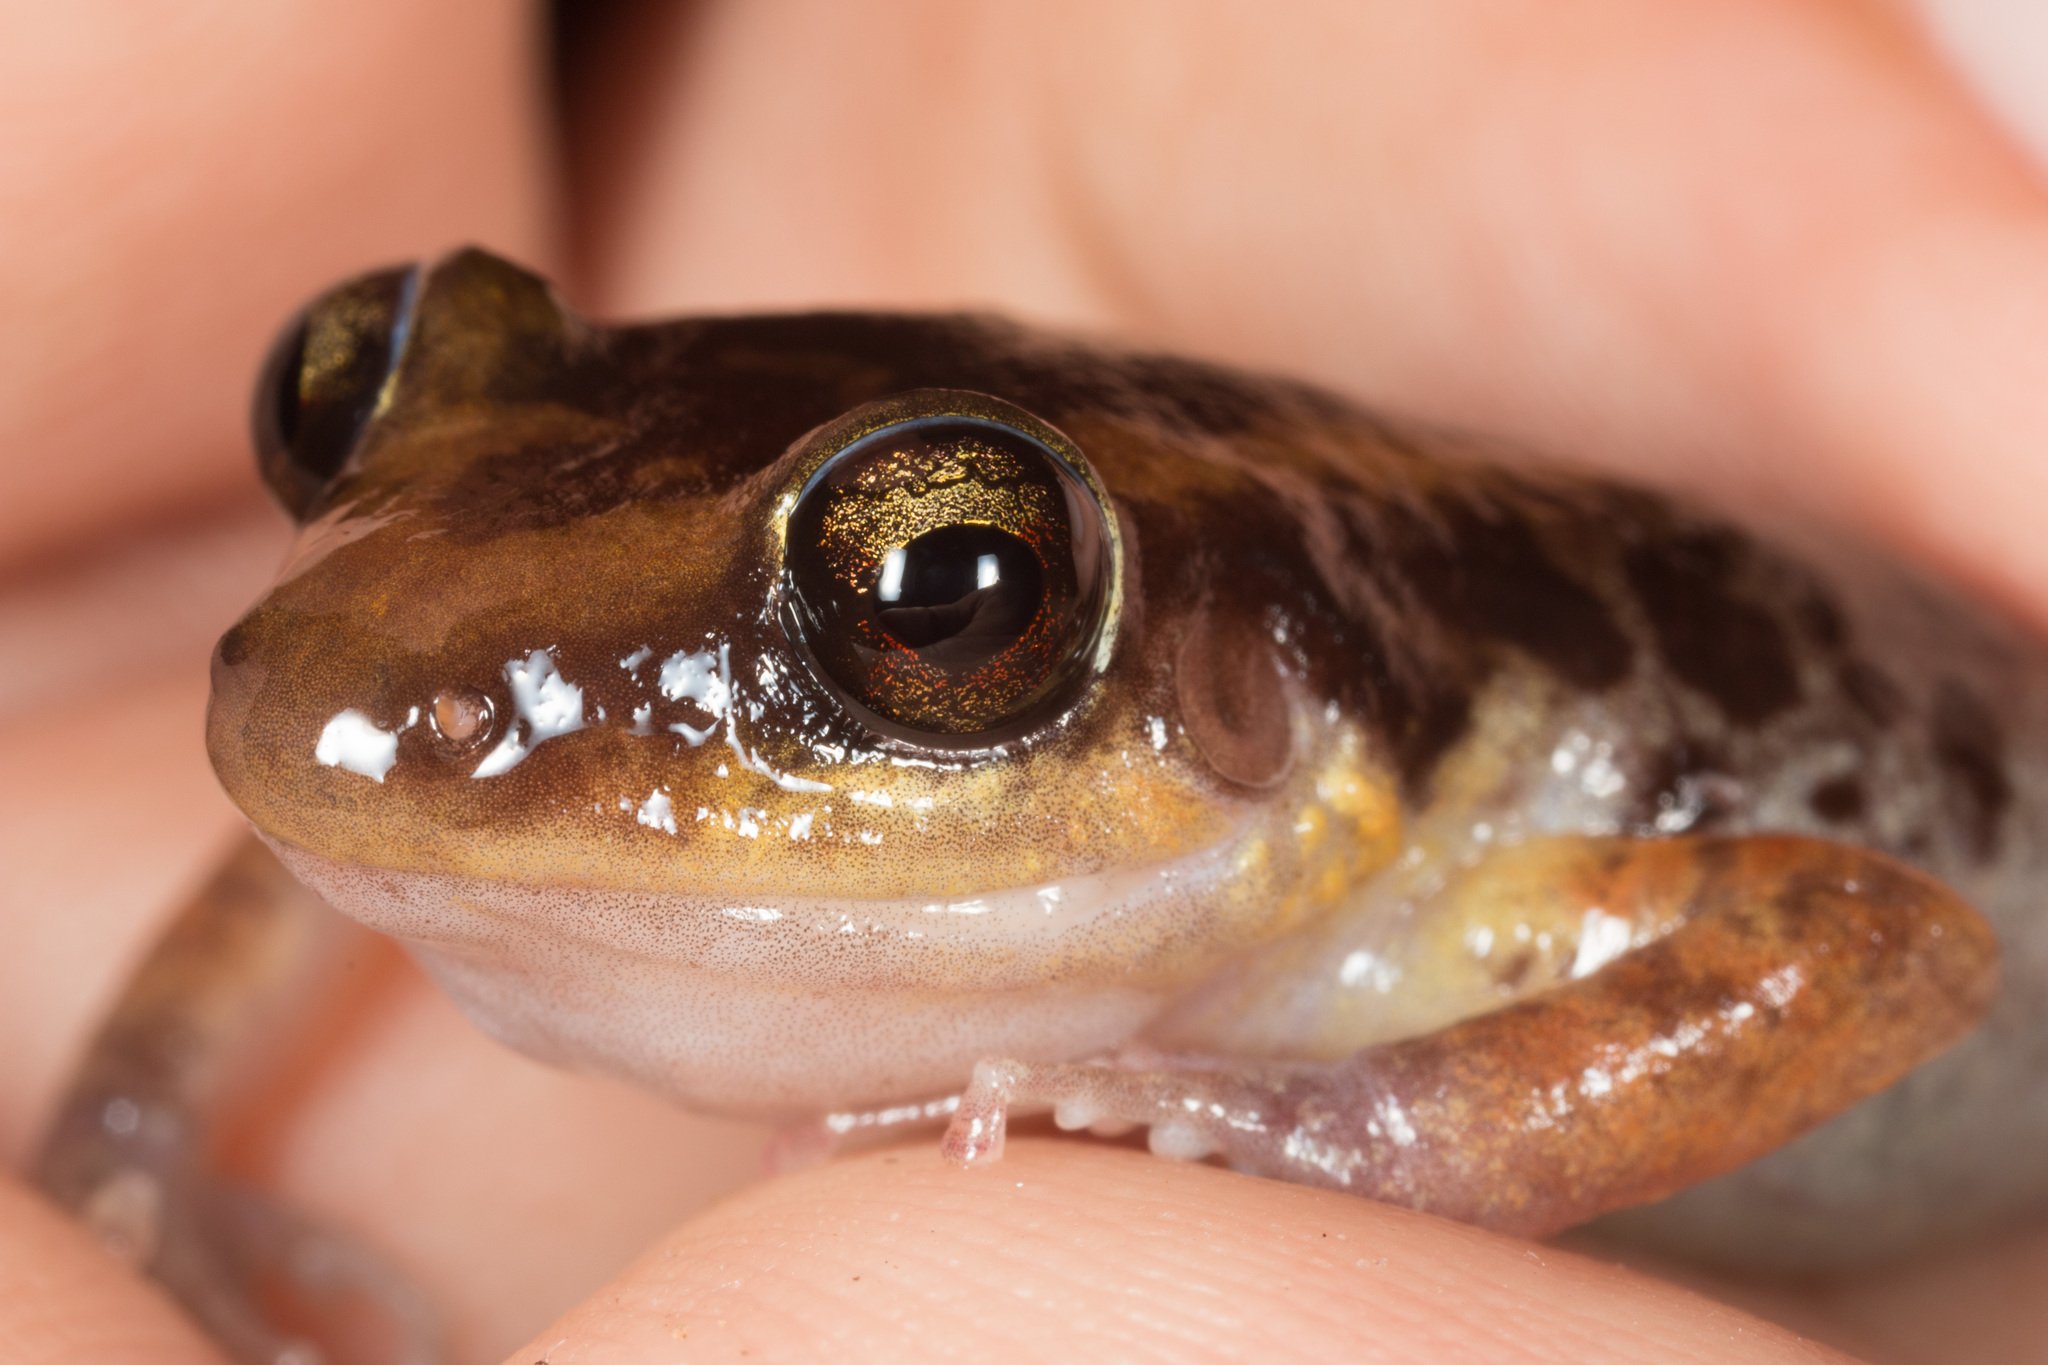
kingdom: Animalia
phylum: Chordata
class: Amphibia
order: Anura
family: Eleutherodactylidae
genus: Eleutherodactylus
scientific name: Eleutherodactylus paralius
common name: Coastal red-rumped frog
